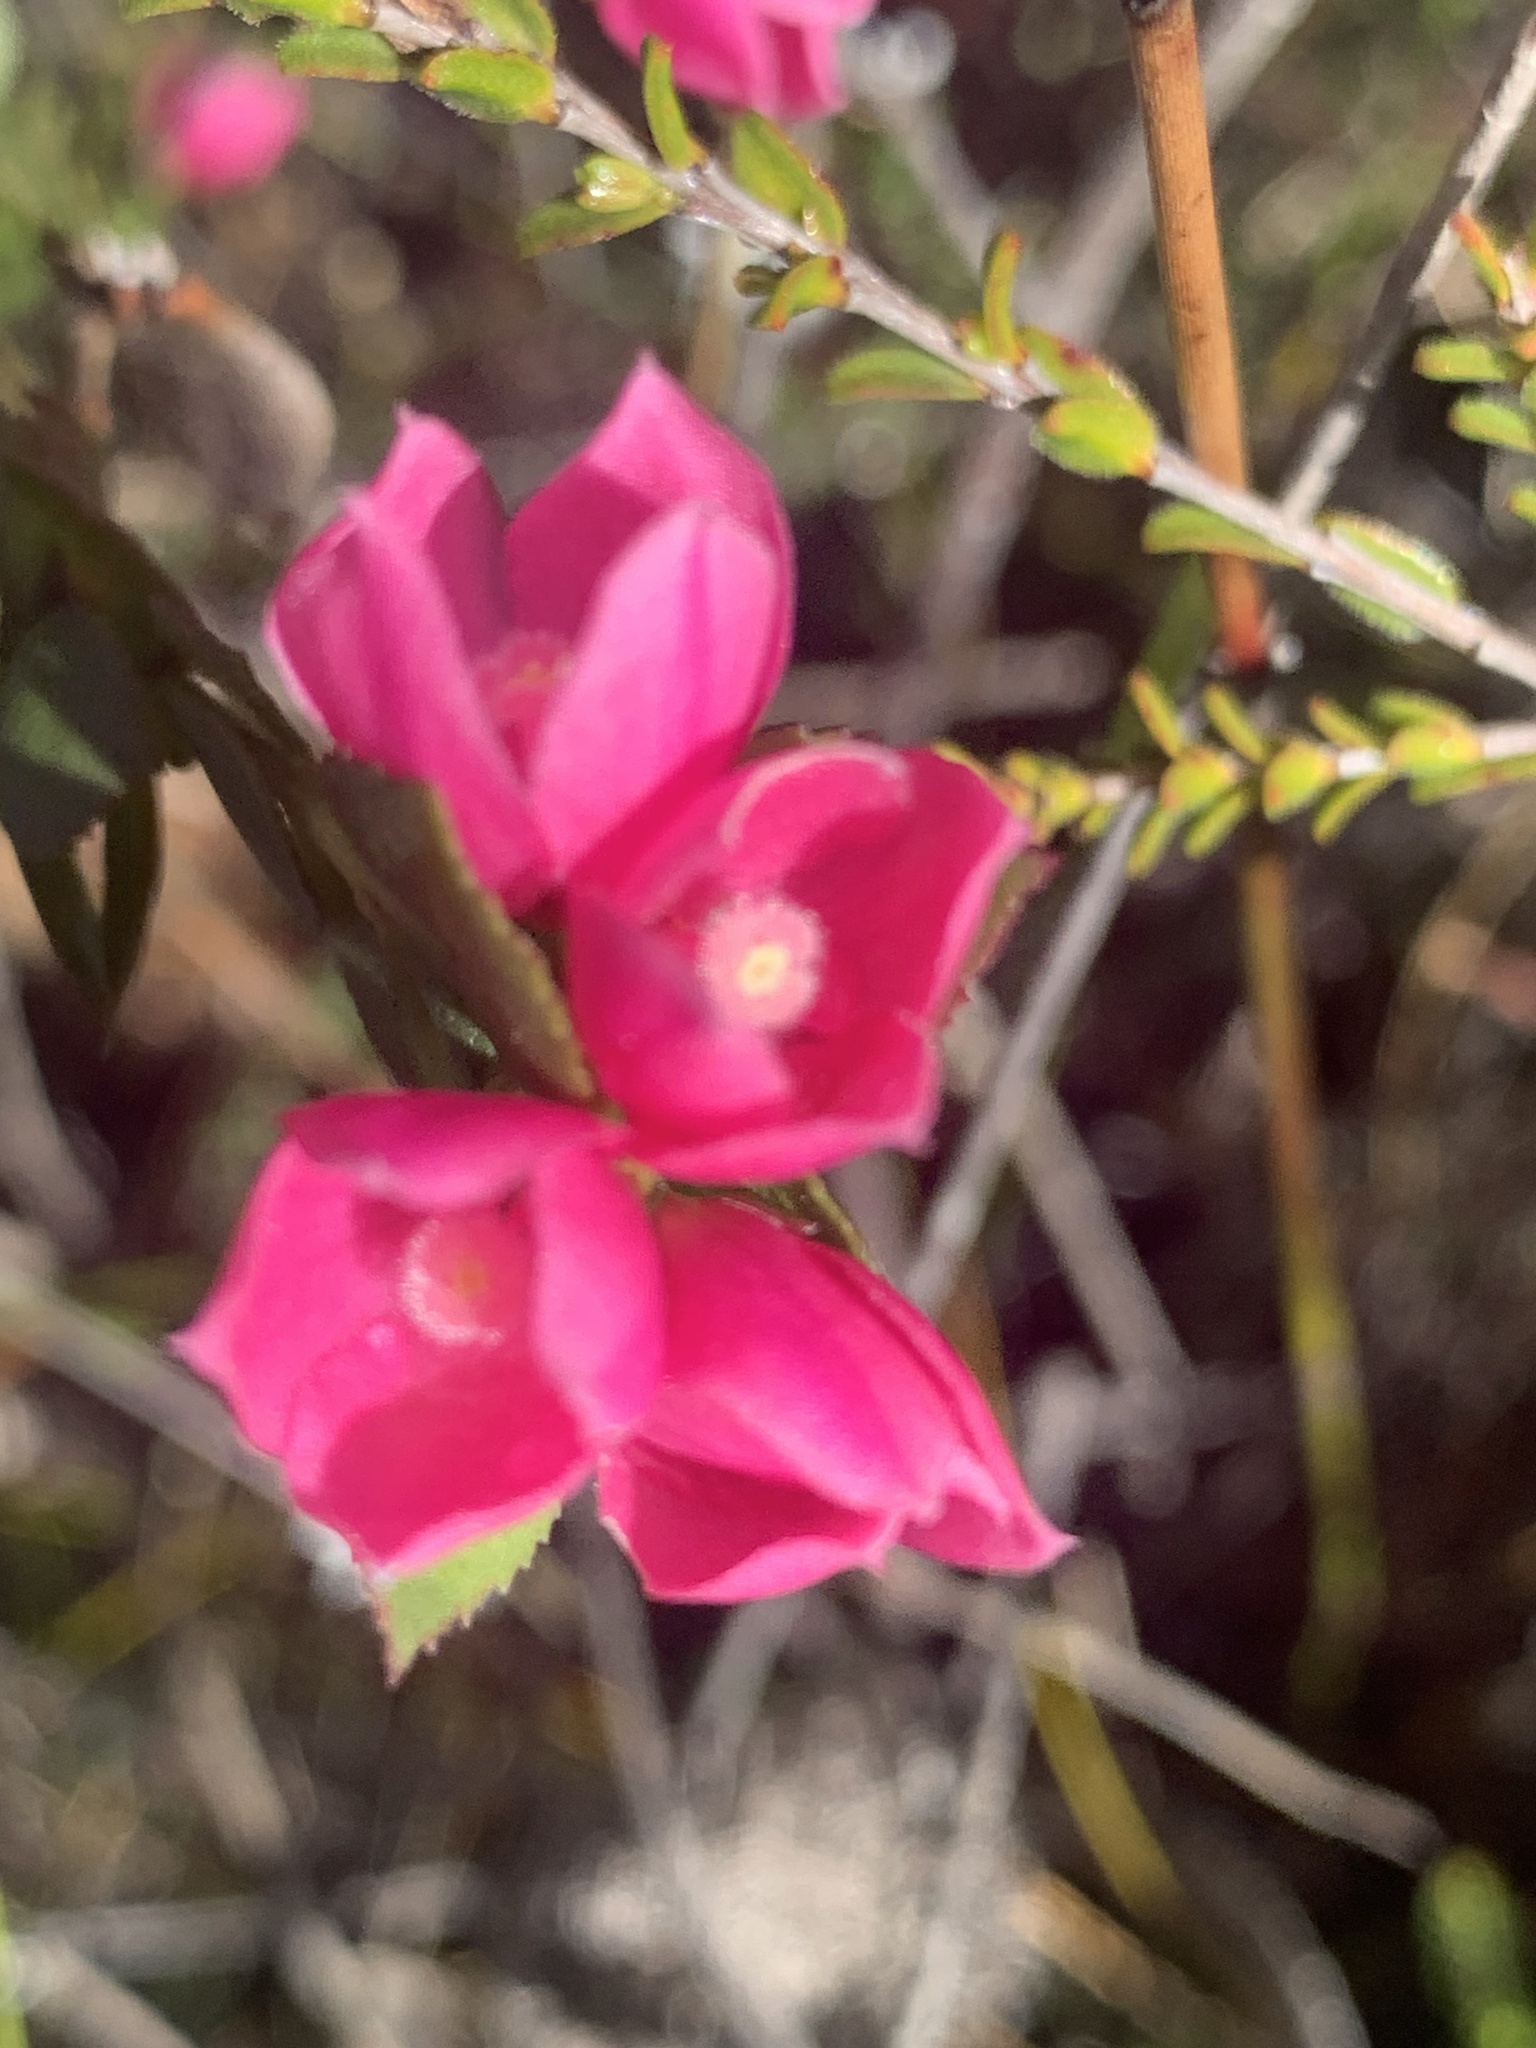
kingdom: Plantae
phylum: Tracheophyta
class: Magnoliopsida
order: Sapindales
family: Rutaceae
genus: Boronia
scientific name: Boronia serrulata
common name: Rose boronia
